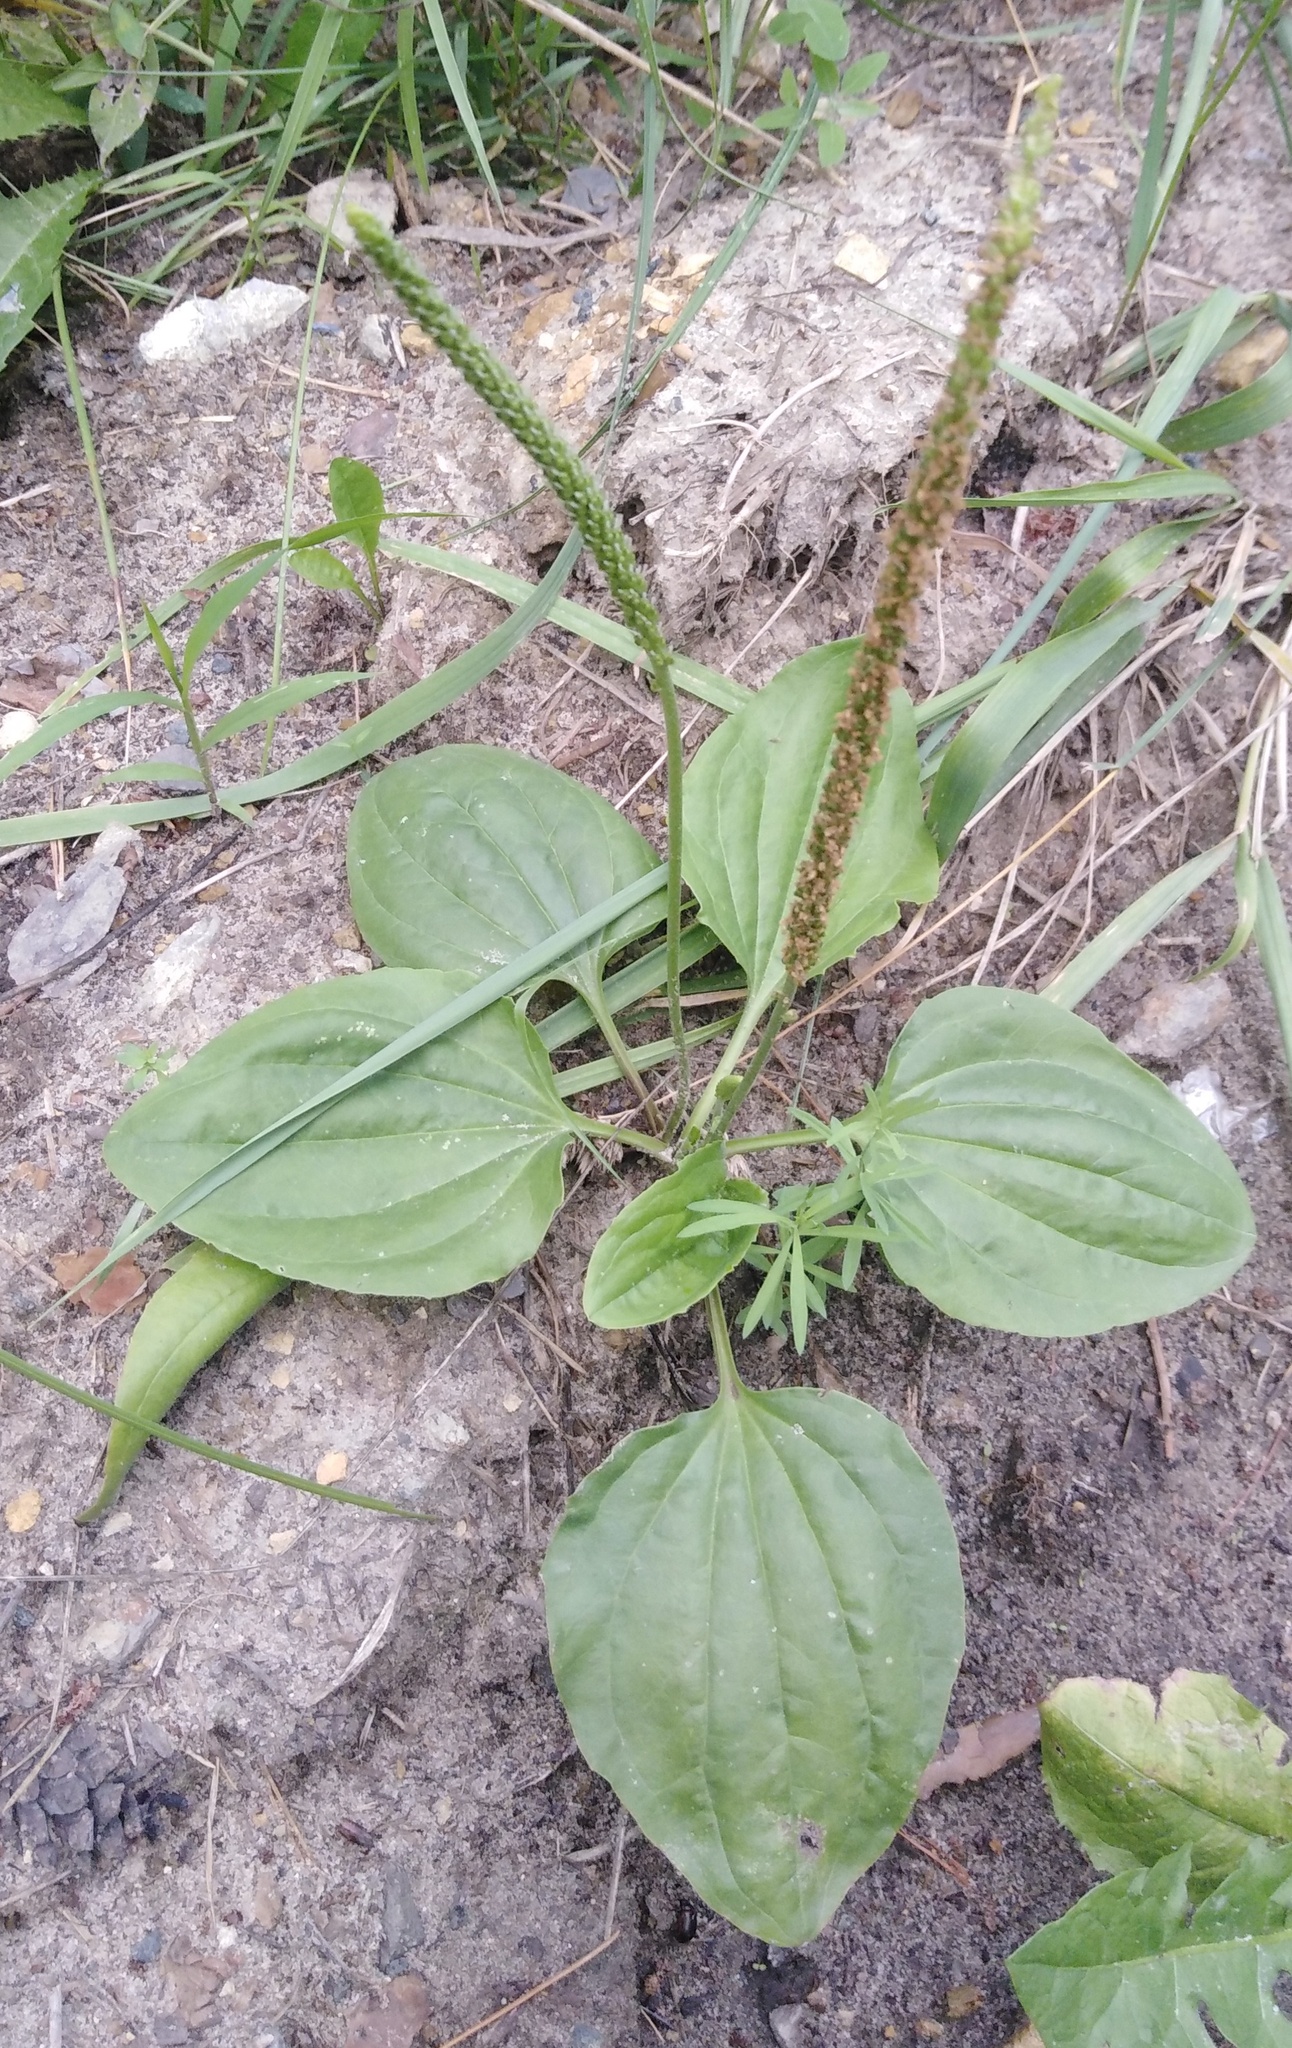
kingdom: Plantae
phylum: Tracheophyta
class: Magnoliopsida
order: Lamiales
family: Plantaginaceae
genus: Plantago
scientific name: Plantago major
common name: Common plantain
